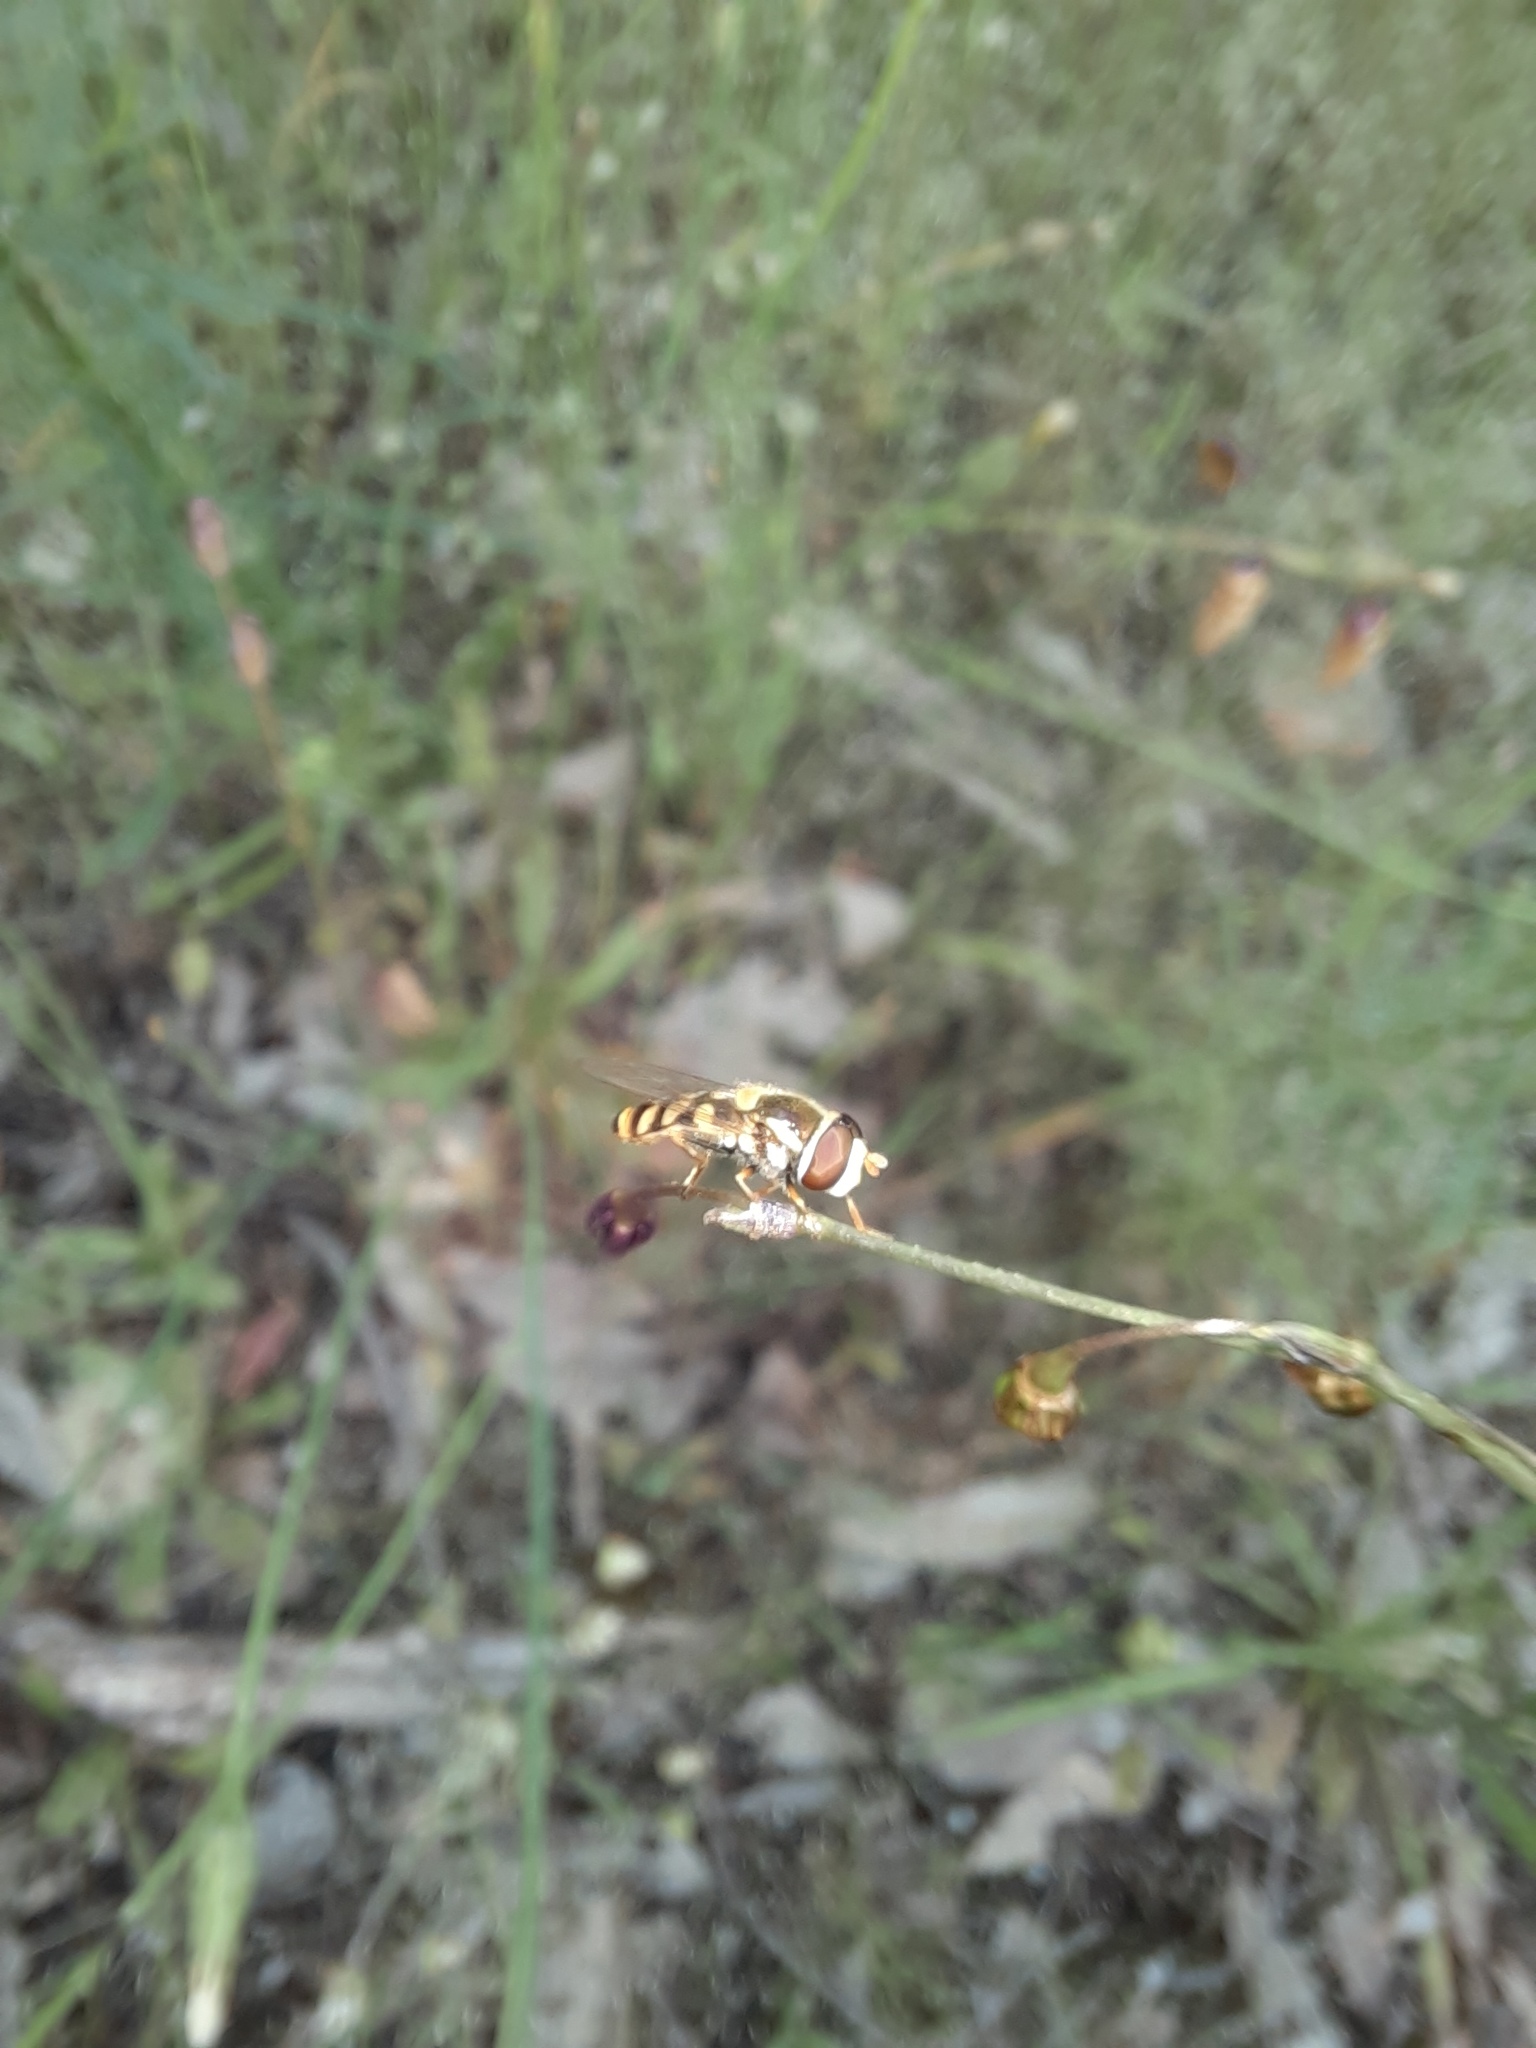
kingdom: Animalia
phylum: Arthropoda
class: Insecta
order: Diptera
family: Syrphidae
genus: Simosyrphus
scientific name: Simosyrphus grandicornis
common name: Hoverfly
